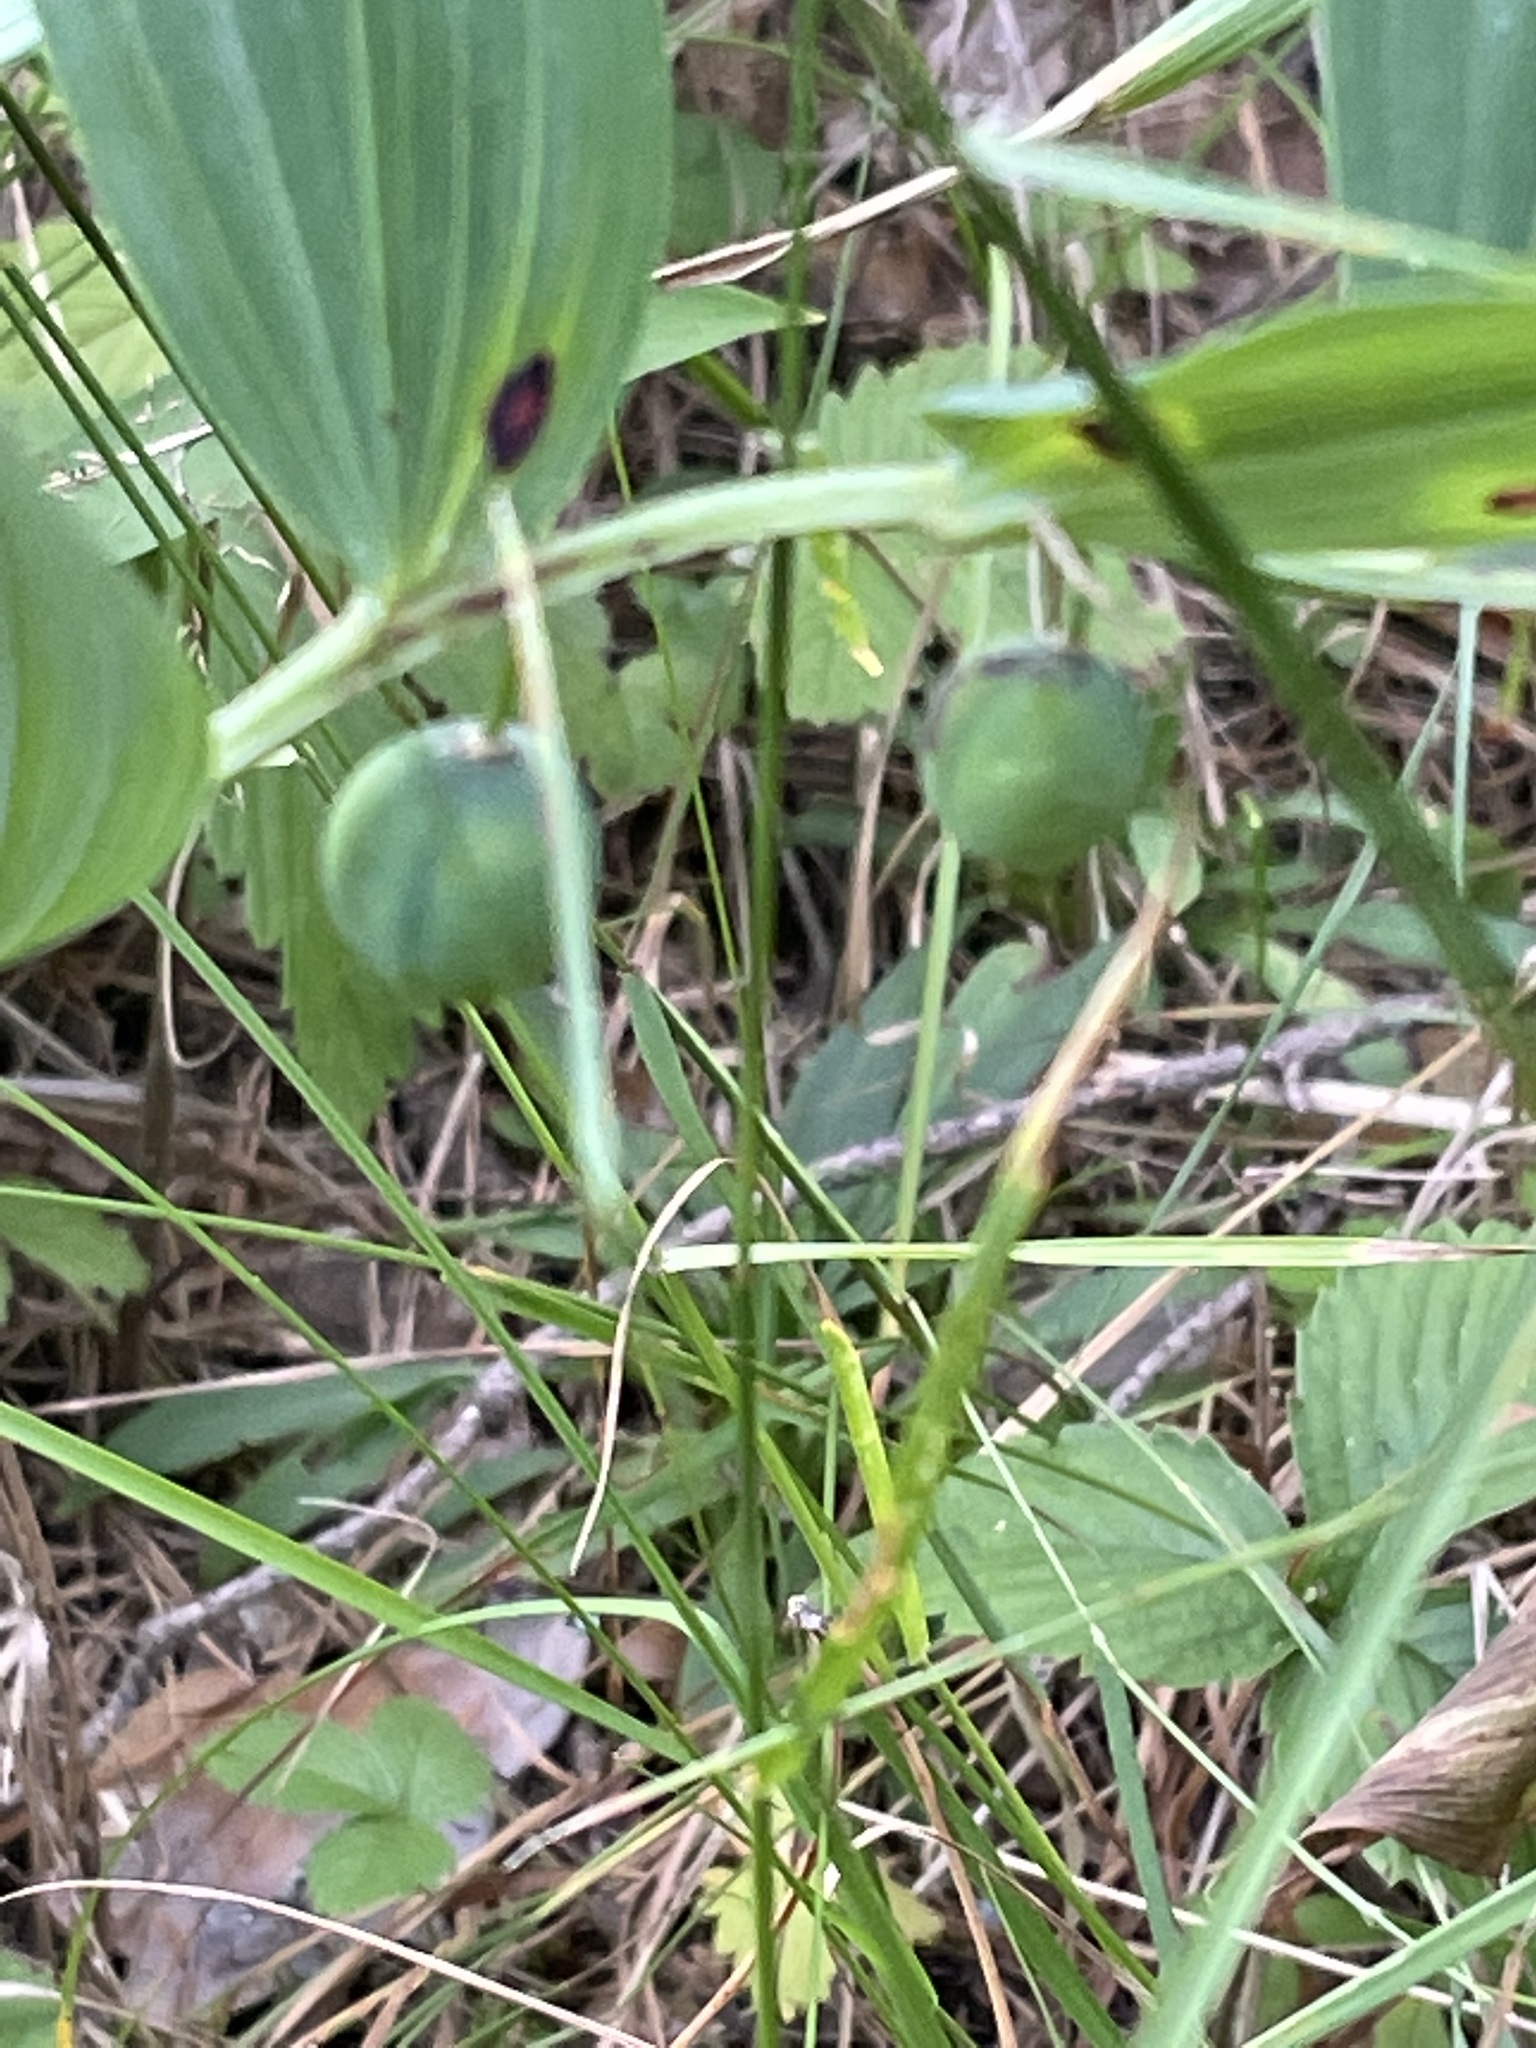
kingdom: Plantae
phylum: Tracheophyta
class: Liliopsida
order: Asparagales
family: Asparagaceae
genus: Polygonatum
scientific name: Polygonatum multiflorum
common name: Solomon's-seal
